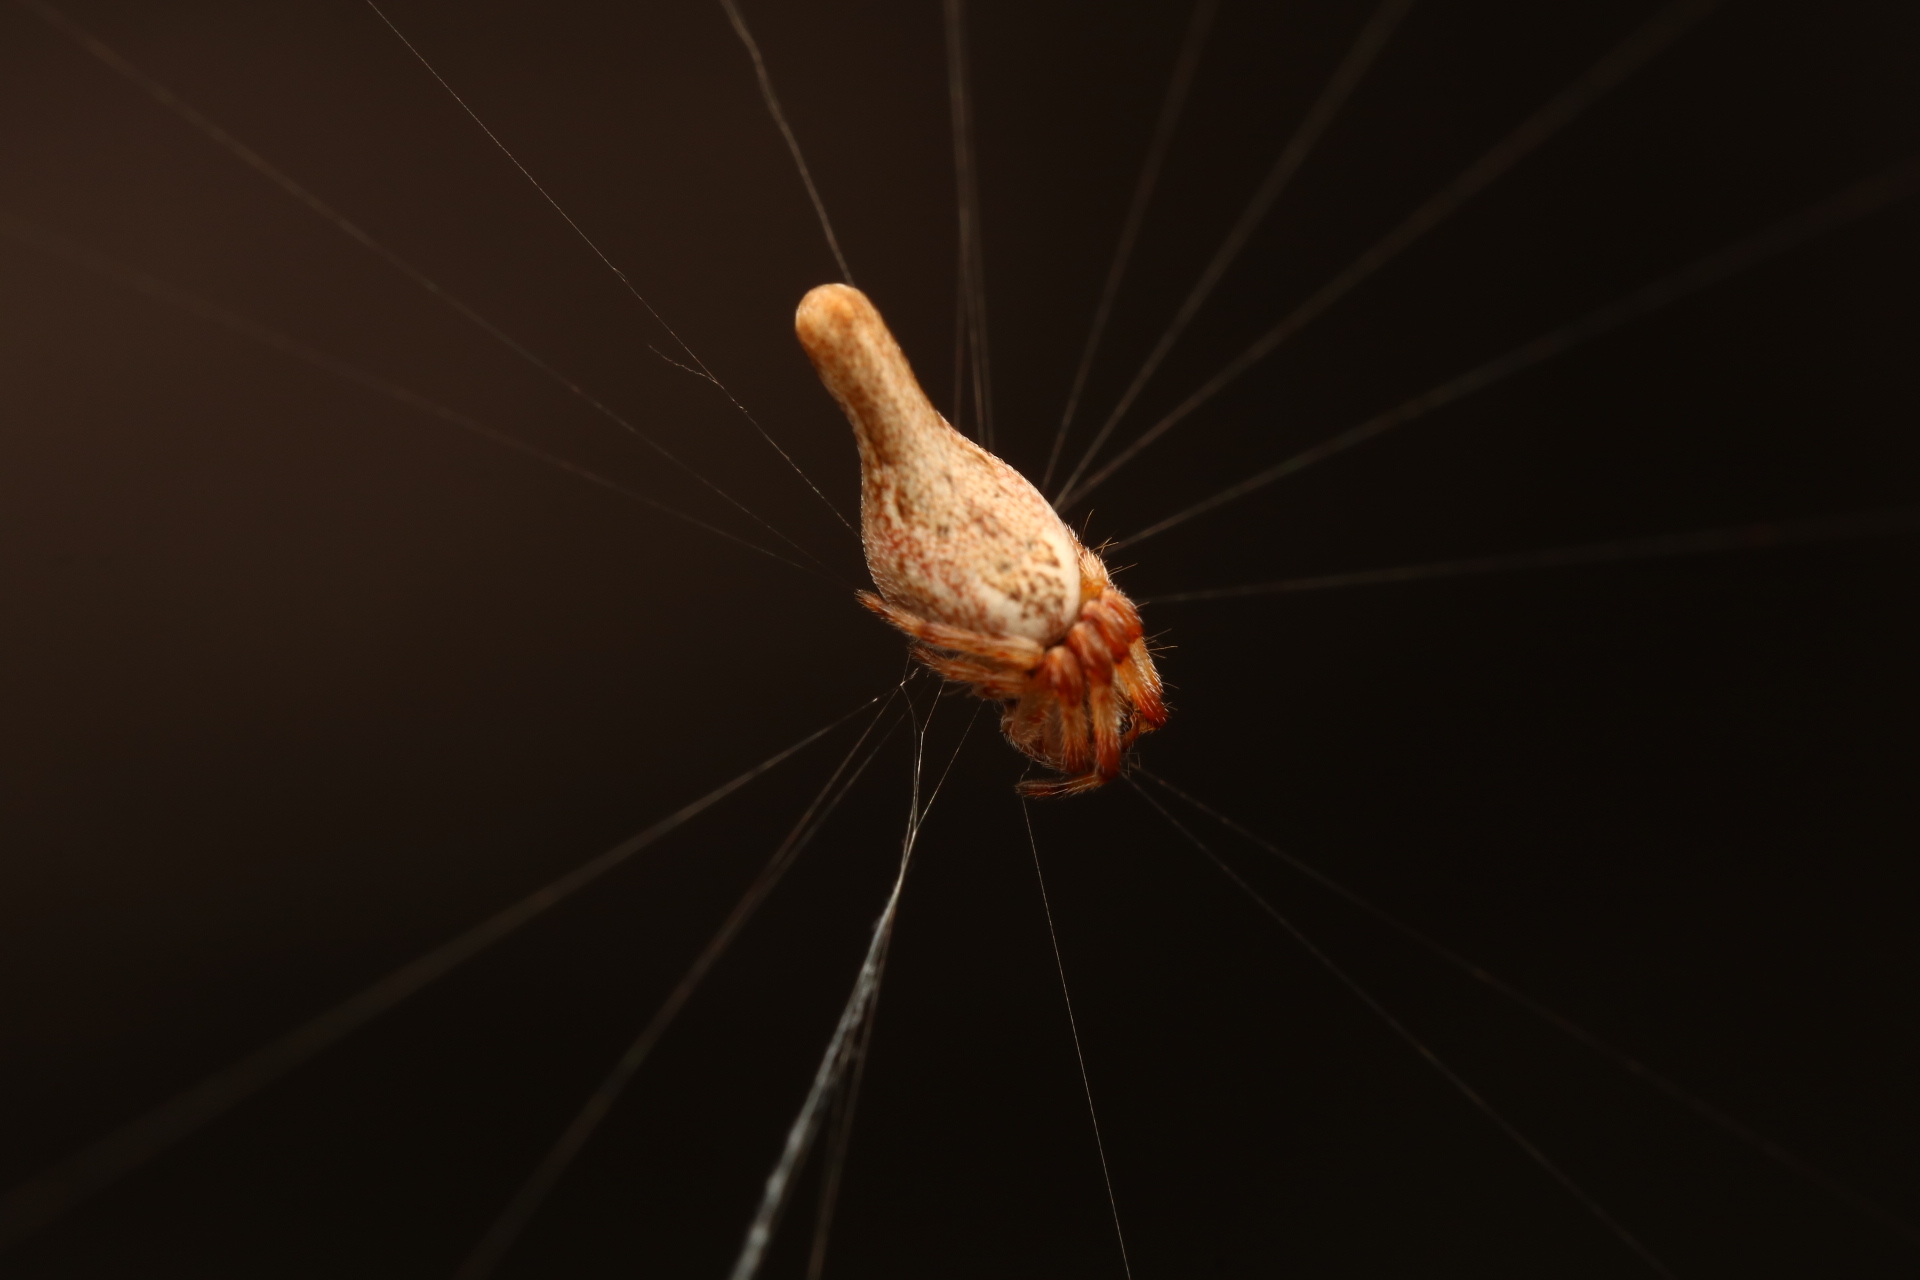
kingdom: Animalia
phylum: Arthropoda
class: Arachnida
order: Araneae
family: Araneidae
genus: Cyclosa
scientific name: Cyclosa conica
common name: Conical trashline orbweaver
